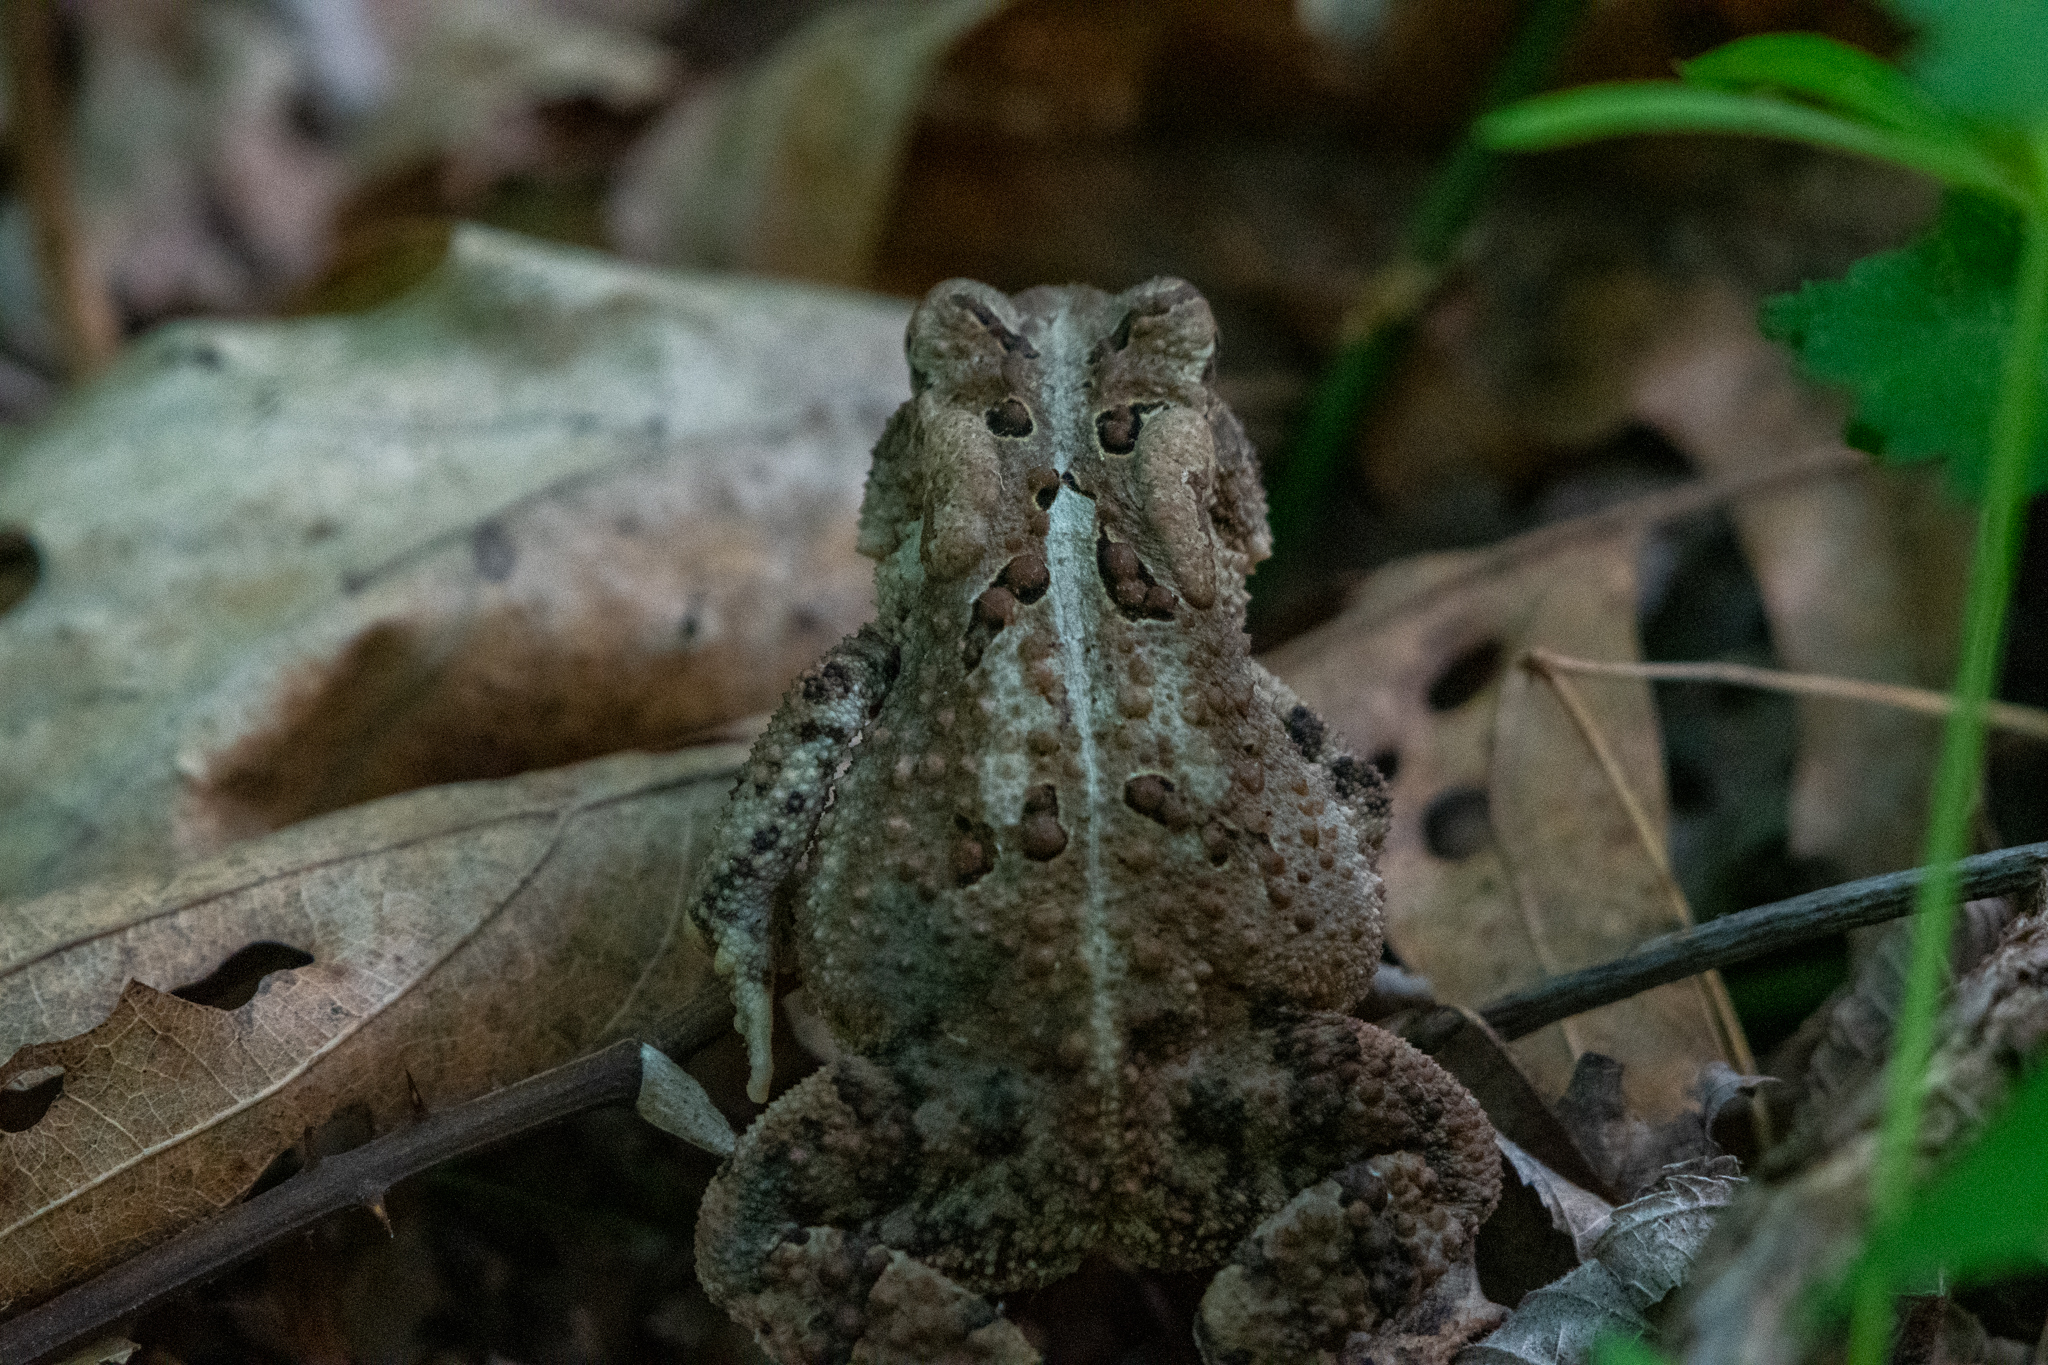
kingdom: Animalia
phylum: Chordata
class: Amphibia
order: Anura
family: Bufonidae
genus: Anaxyrus
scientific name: Anaxyrus americanus
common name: American toad
